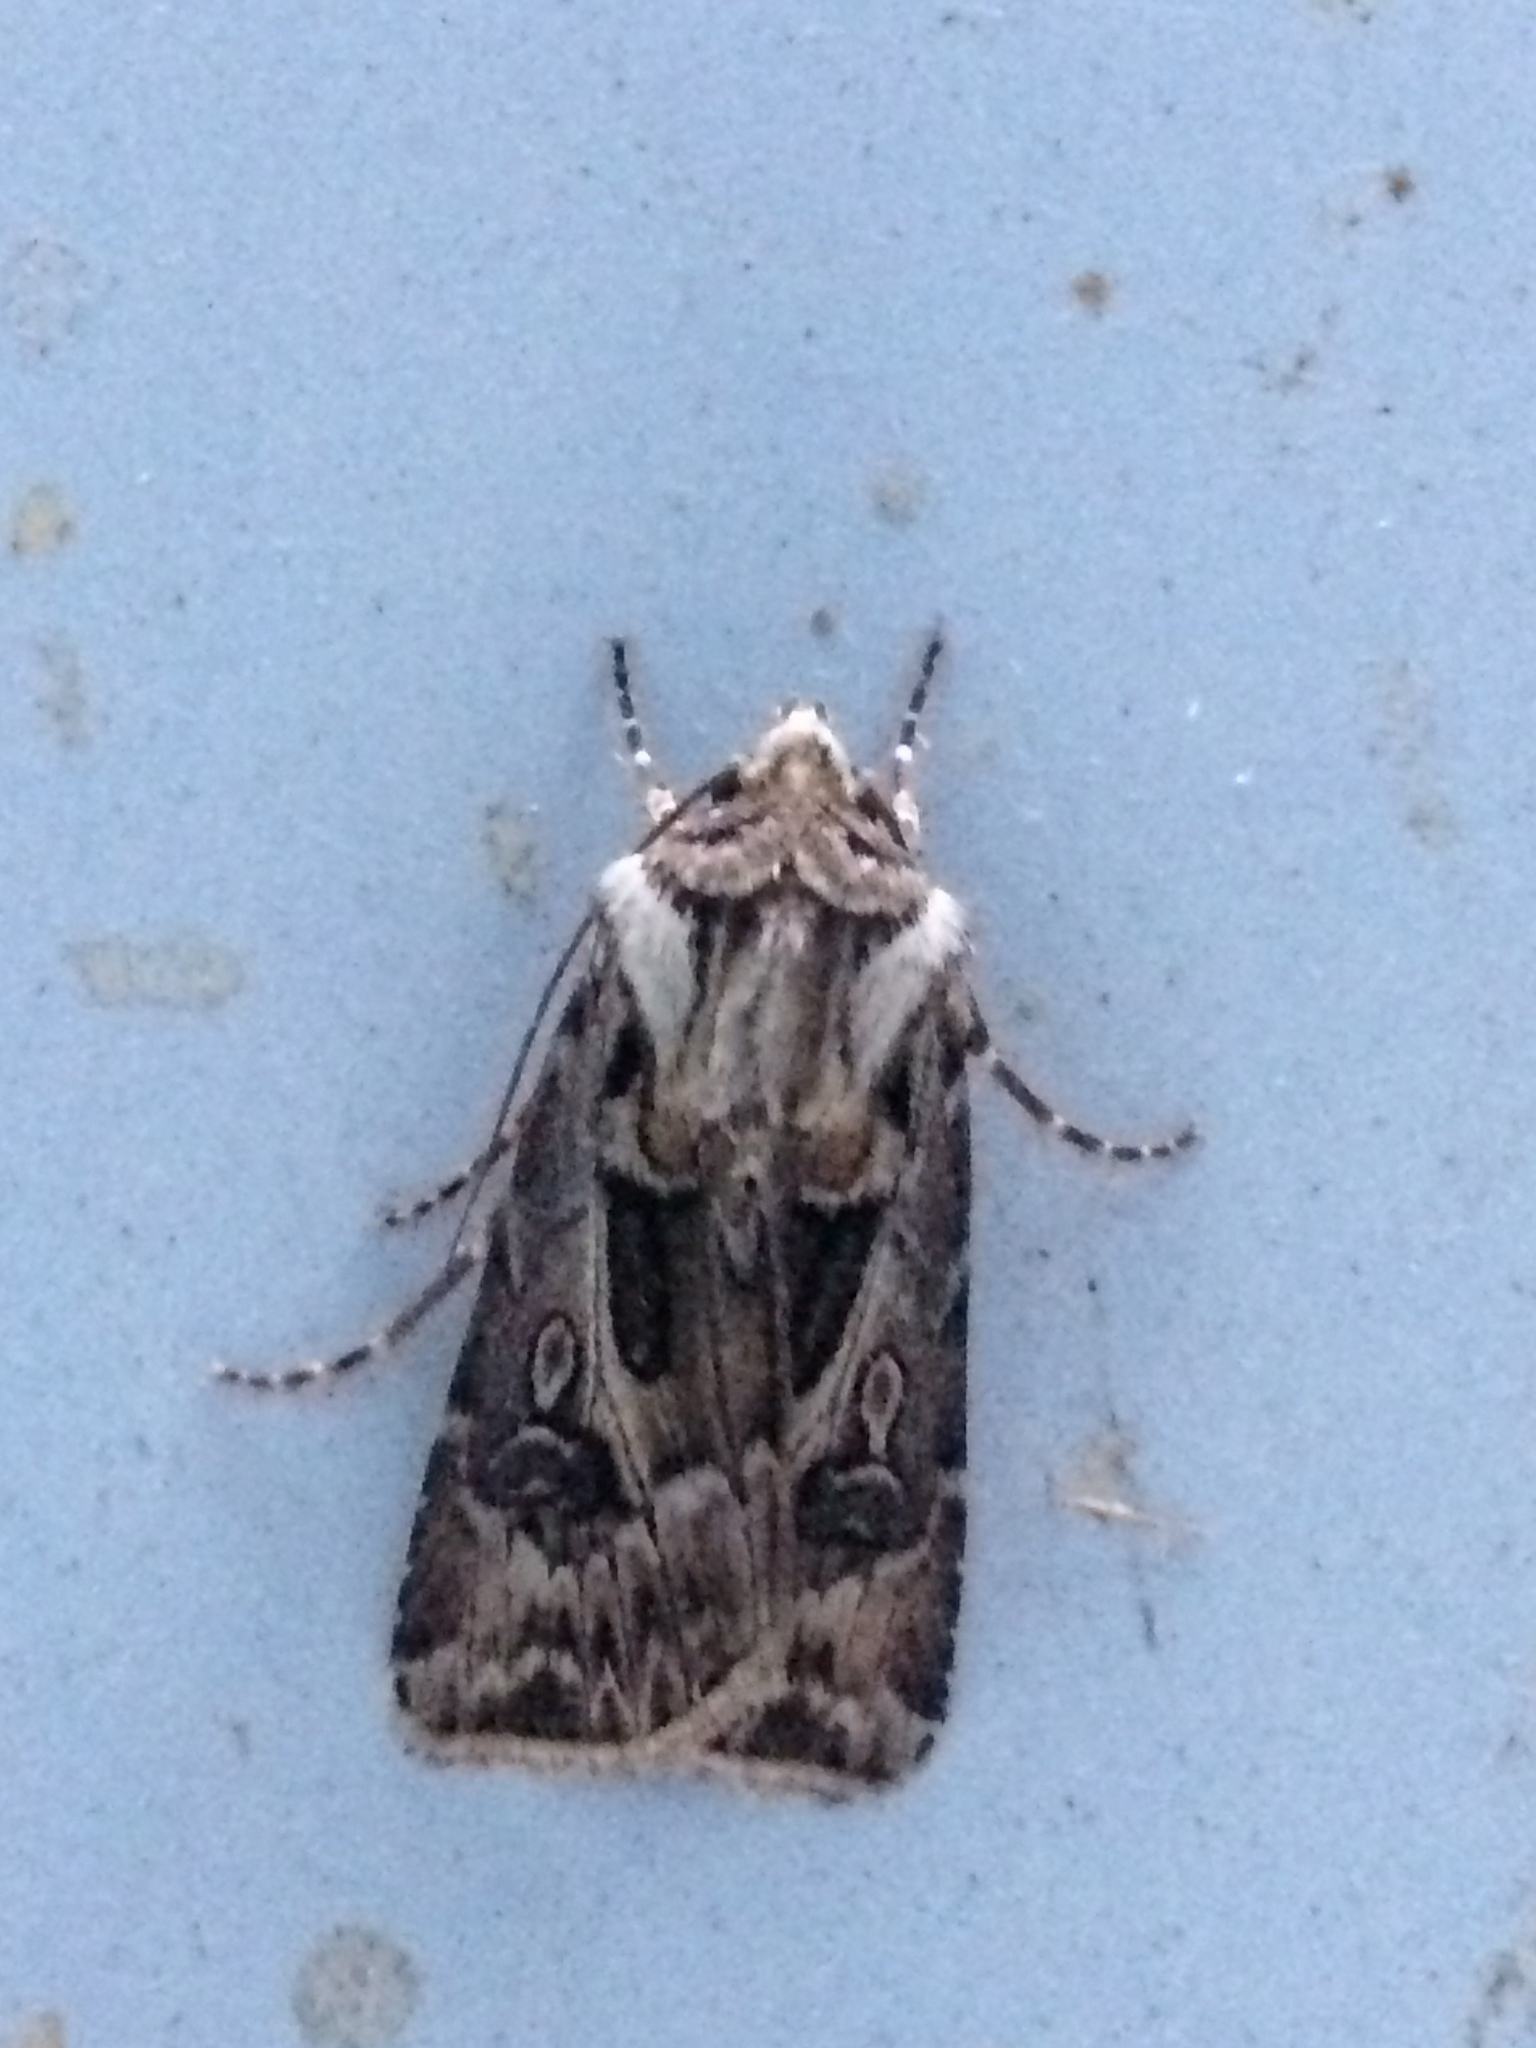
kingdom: Animalia
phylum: Arthropoda
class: Insecta
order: Lepidoptera
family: Noctuidae
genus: Agrotis
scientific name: Agrotis vestigialis
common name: Archer's dart
